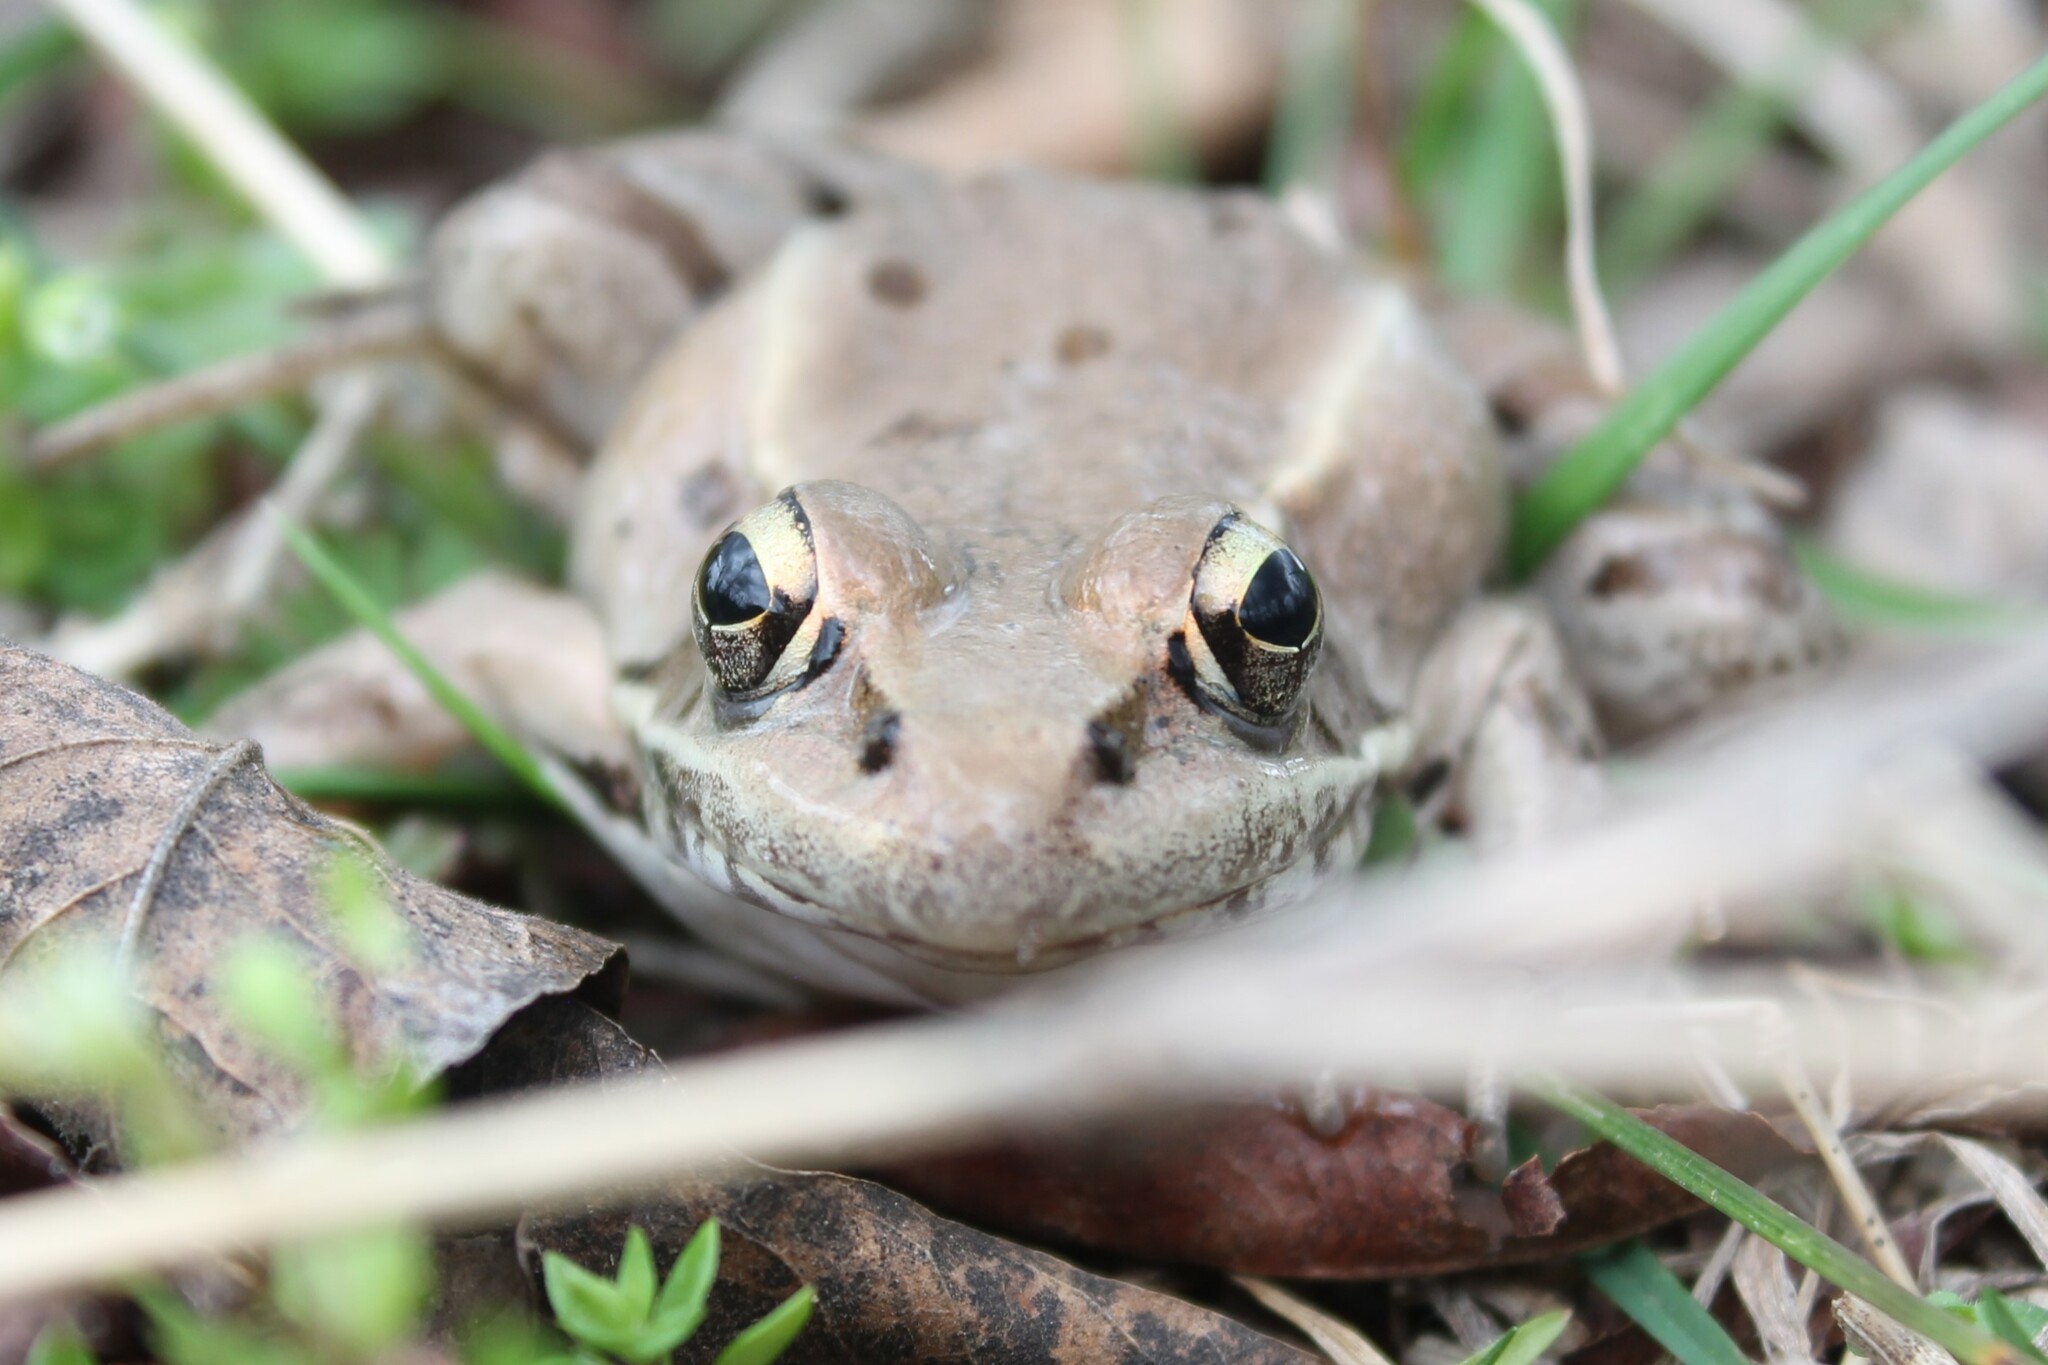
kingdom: Animalia
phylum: Chordata
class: Amphibia
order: Anura
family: Ranidae
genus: Lithobates
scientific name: Lithobates sphenocephalus
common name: Southern leopard frog
